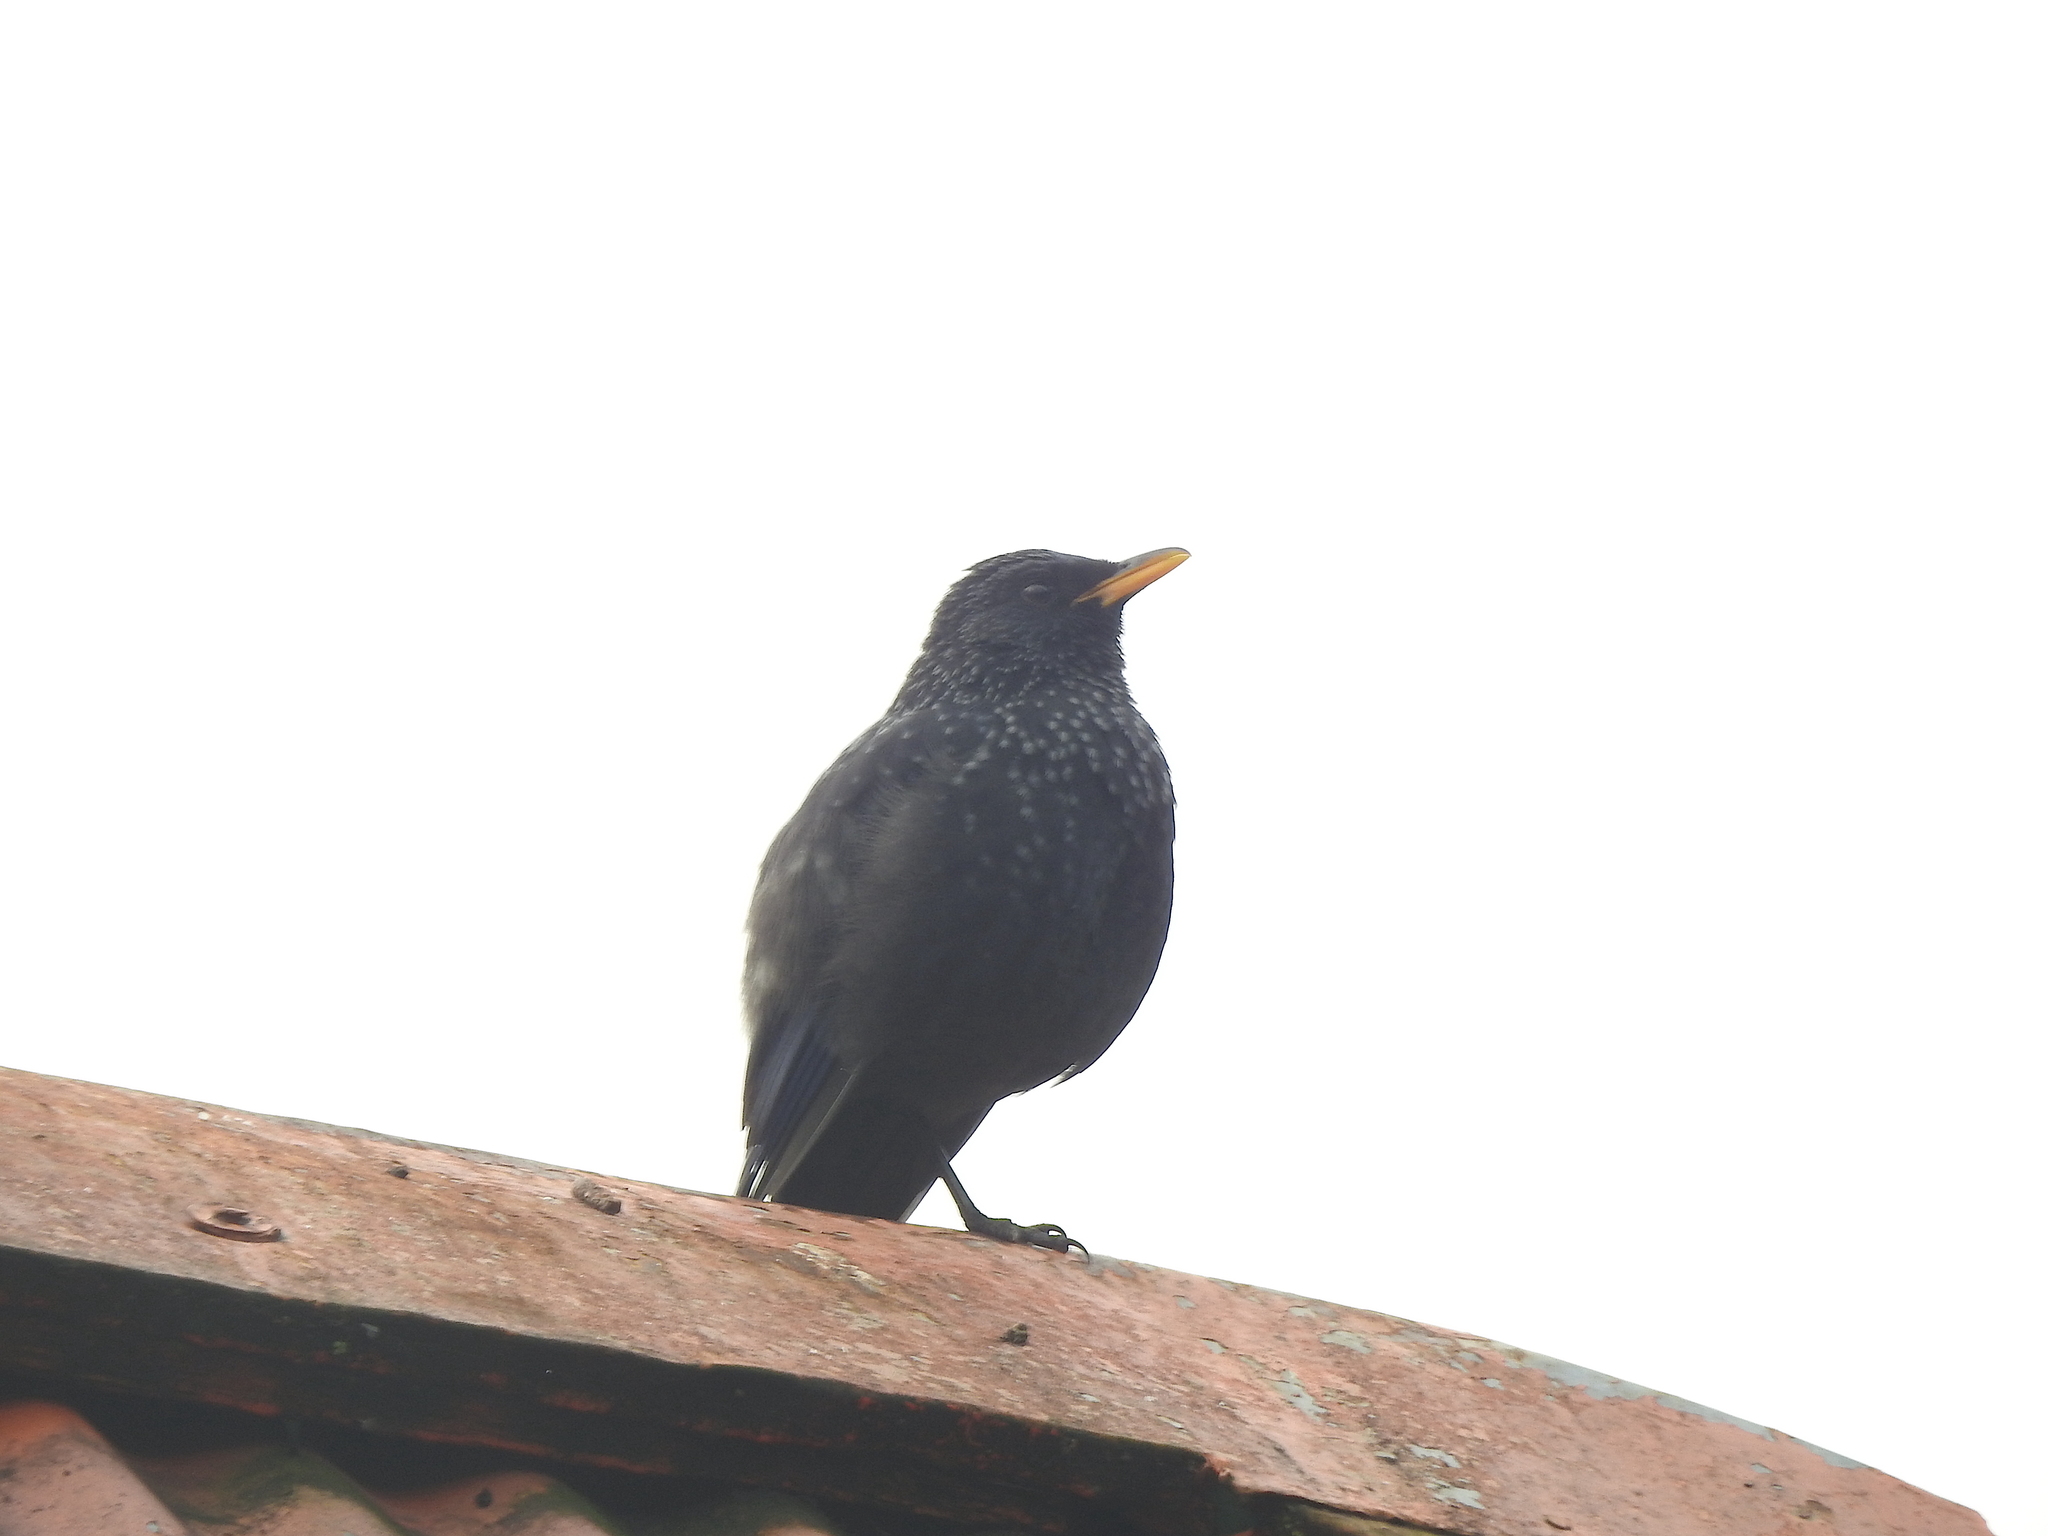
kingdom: Animalia
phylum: Chordata
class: Aves
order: Passeriformes
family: Muscicapidae
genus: Myophonus
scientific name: Myophonus caeruleus
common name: Blue whistling-thrush
